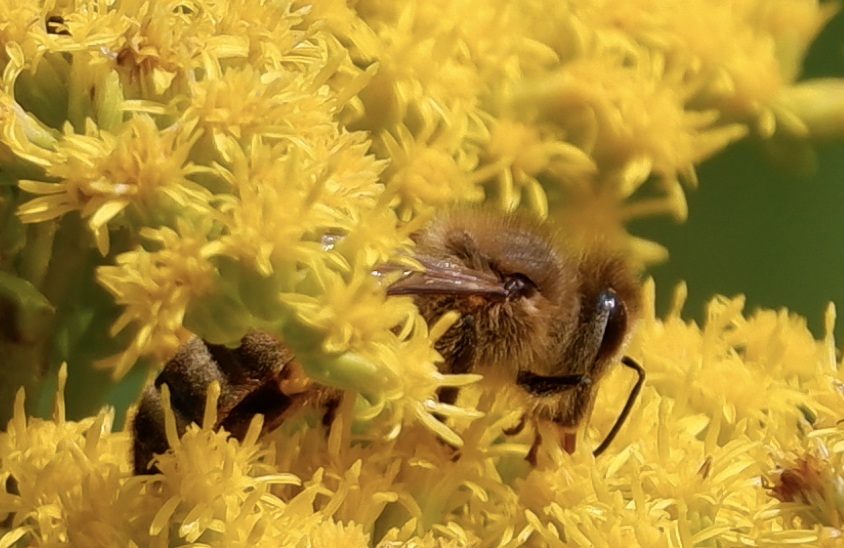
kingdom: Animalia
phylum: Arthropoda
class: Insecta
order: Hymenoptera
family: Apidae
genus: Apis
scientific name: Apis mellifera
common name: Honey bee
